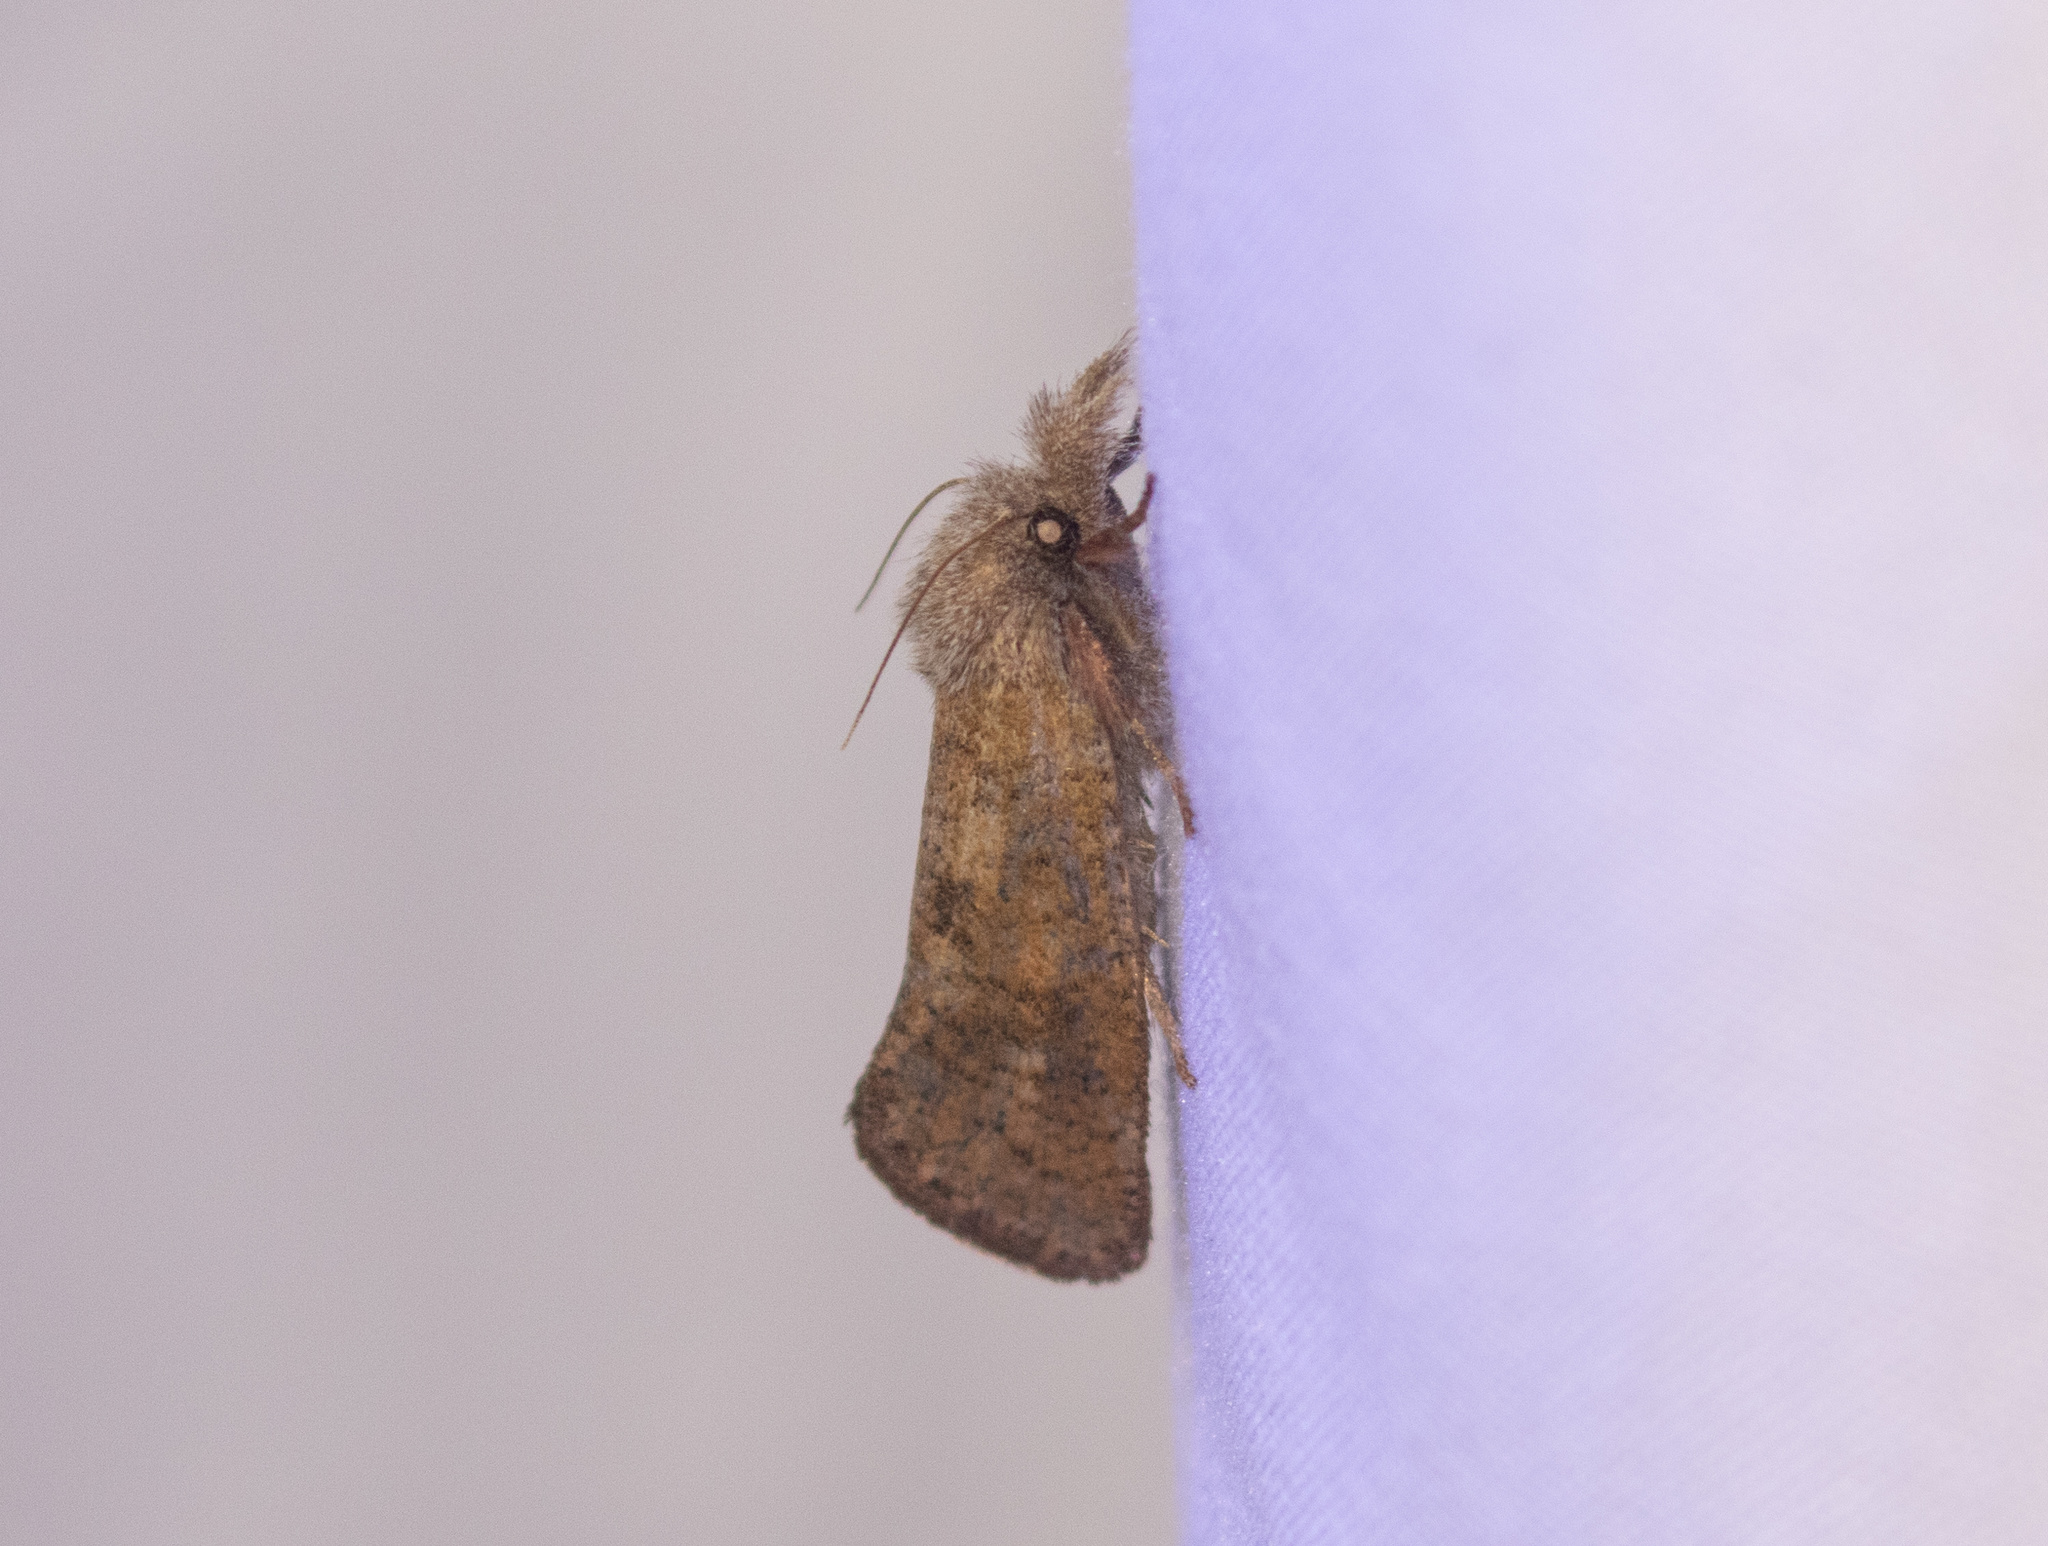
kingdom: Animalia
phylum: Arthropoda
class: Insecta
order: Lepidoptera
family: Tineidae
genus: Acrolophus
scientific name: Acrolophus plumifrontella
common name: Eastern grass tubeworm moth
